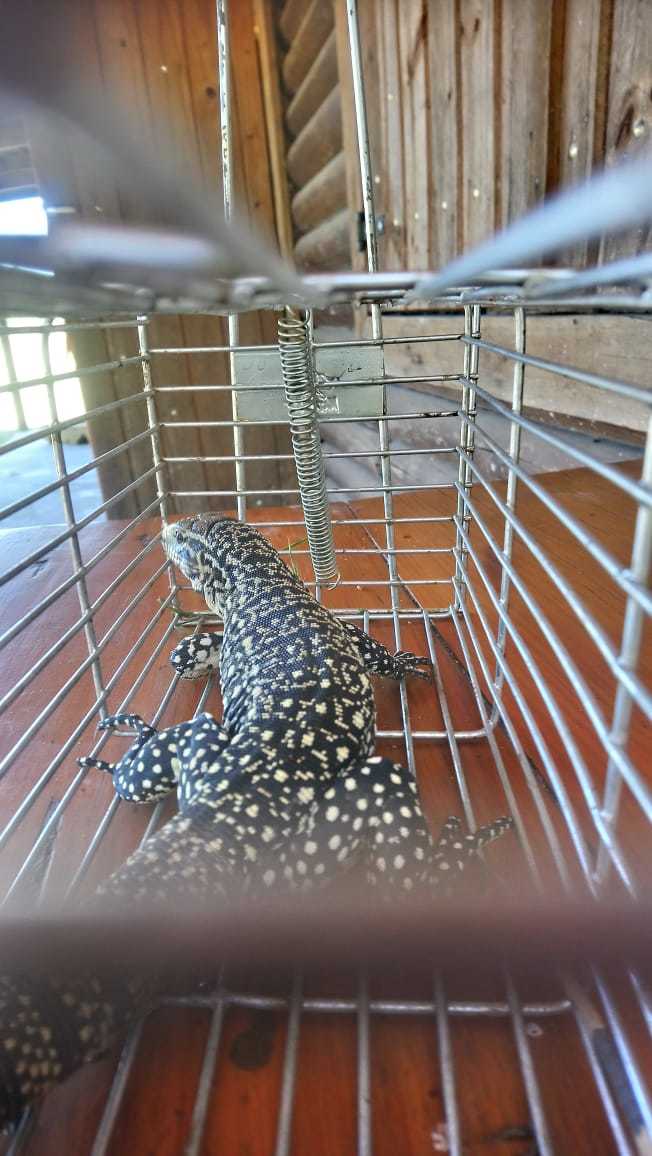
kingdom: Animalia
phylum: Chordata
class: Squamata
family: Teiidae
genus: Salvator
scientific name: Salvator merianae
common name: Argentine black and white tegu
